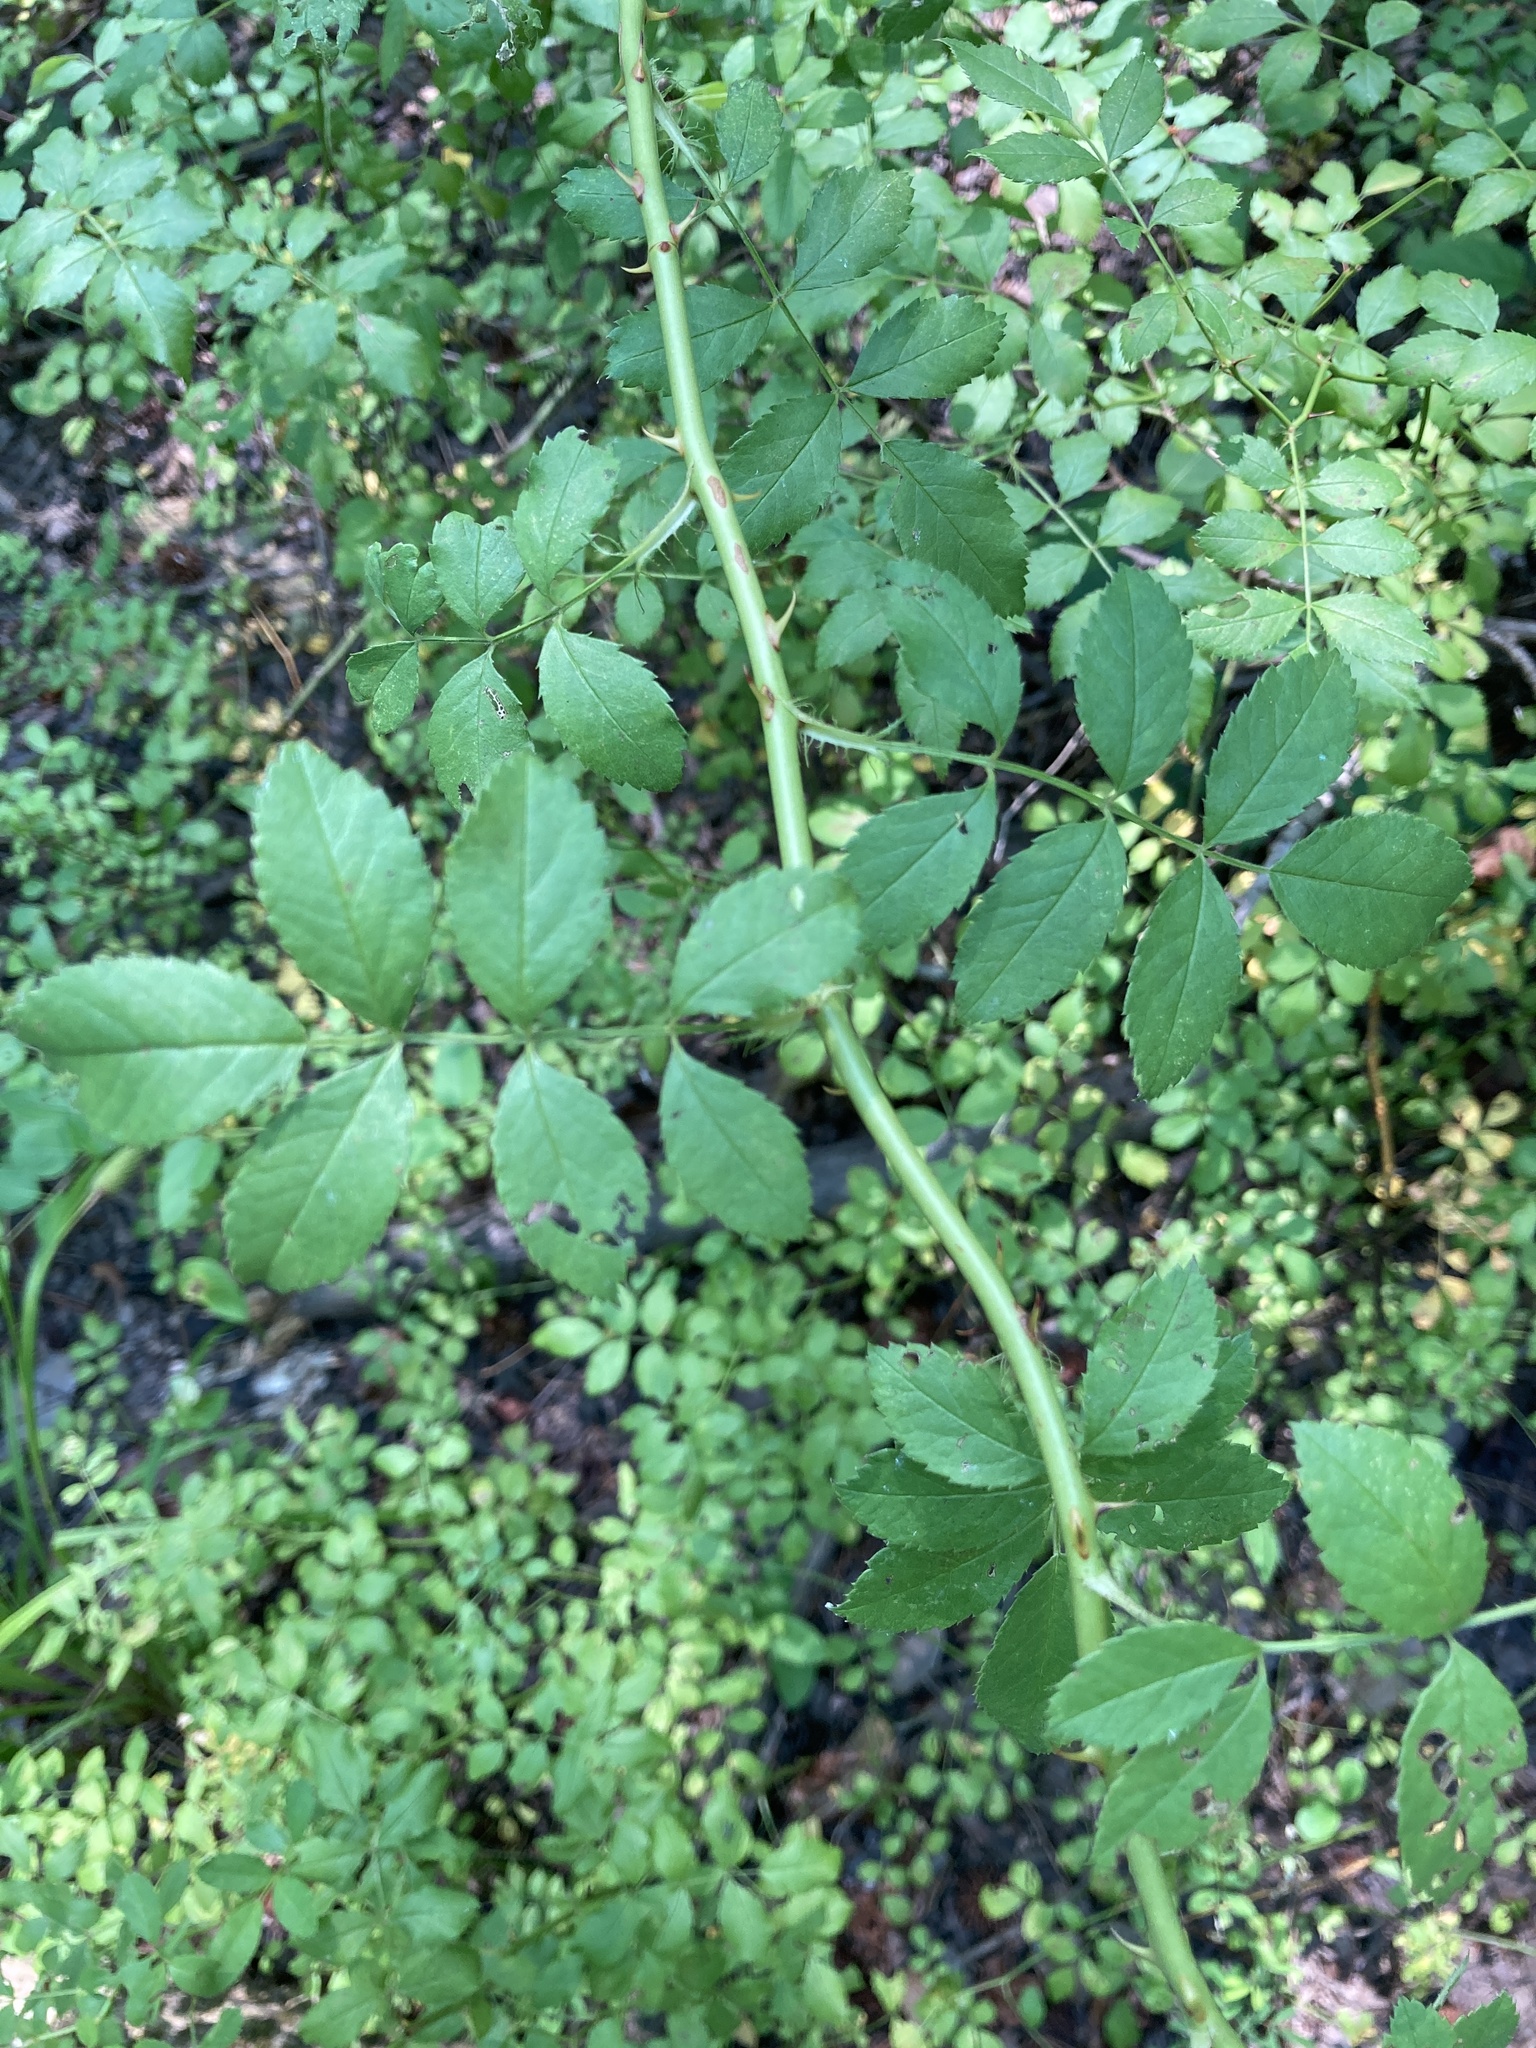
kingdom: Plantae
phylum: Tracheophyta
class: Magnoliopsida
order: Rosales
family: Rosaceae
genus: Rosa
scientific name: Rosa multiflora
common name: Multiflora rose
